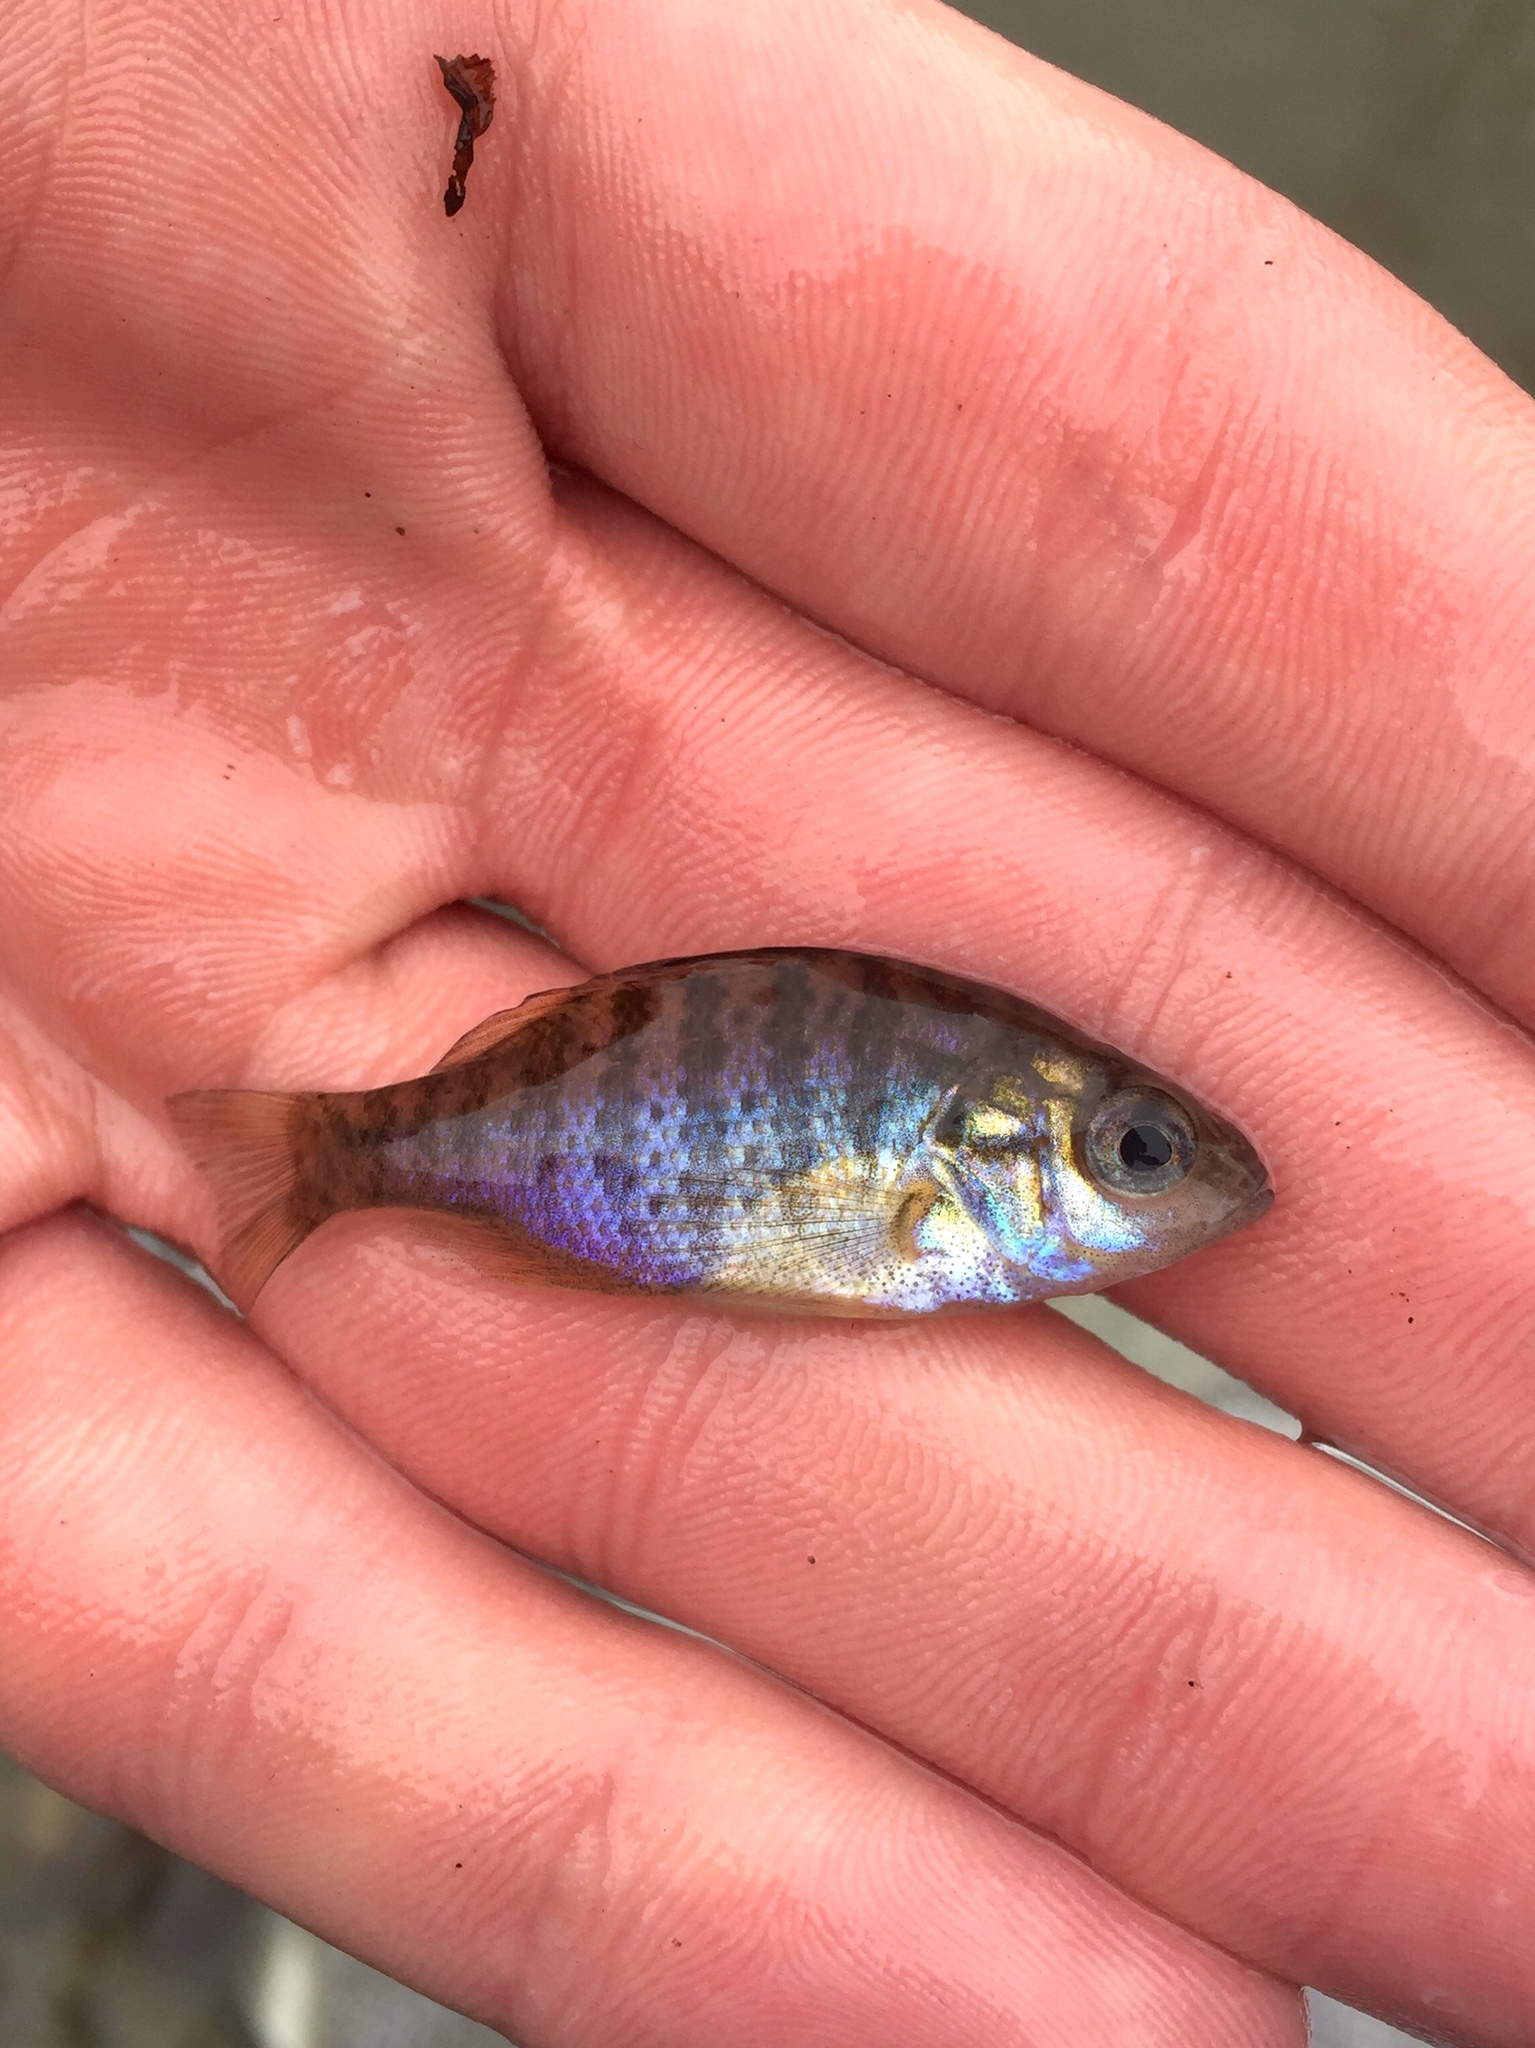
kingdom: Animalia
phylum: Chordata
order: Perciformes
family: Centrarchidae
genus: Lepomis
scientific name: Lepomis gibbosus
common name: Pumpkinseed
